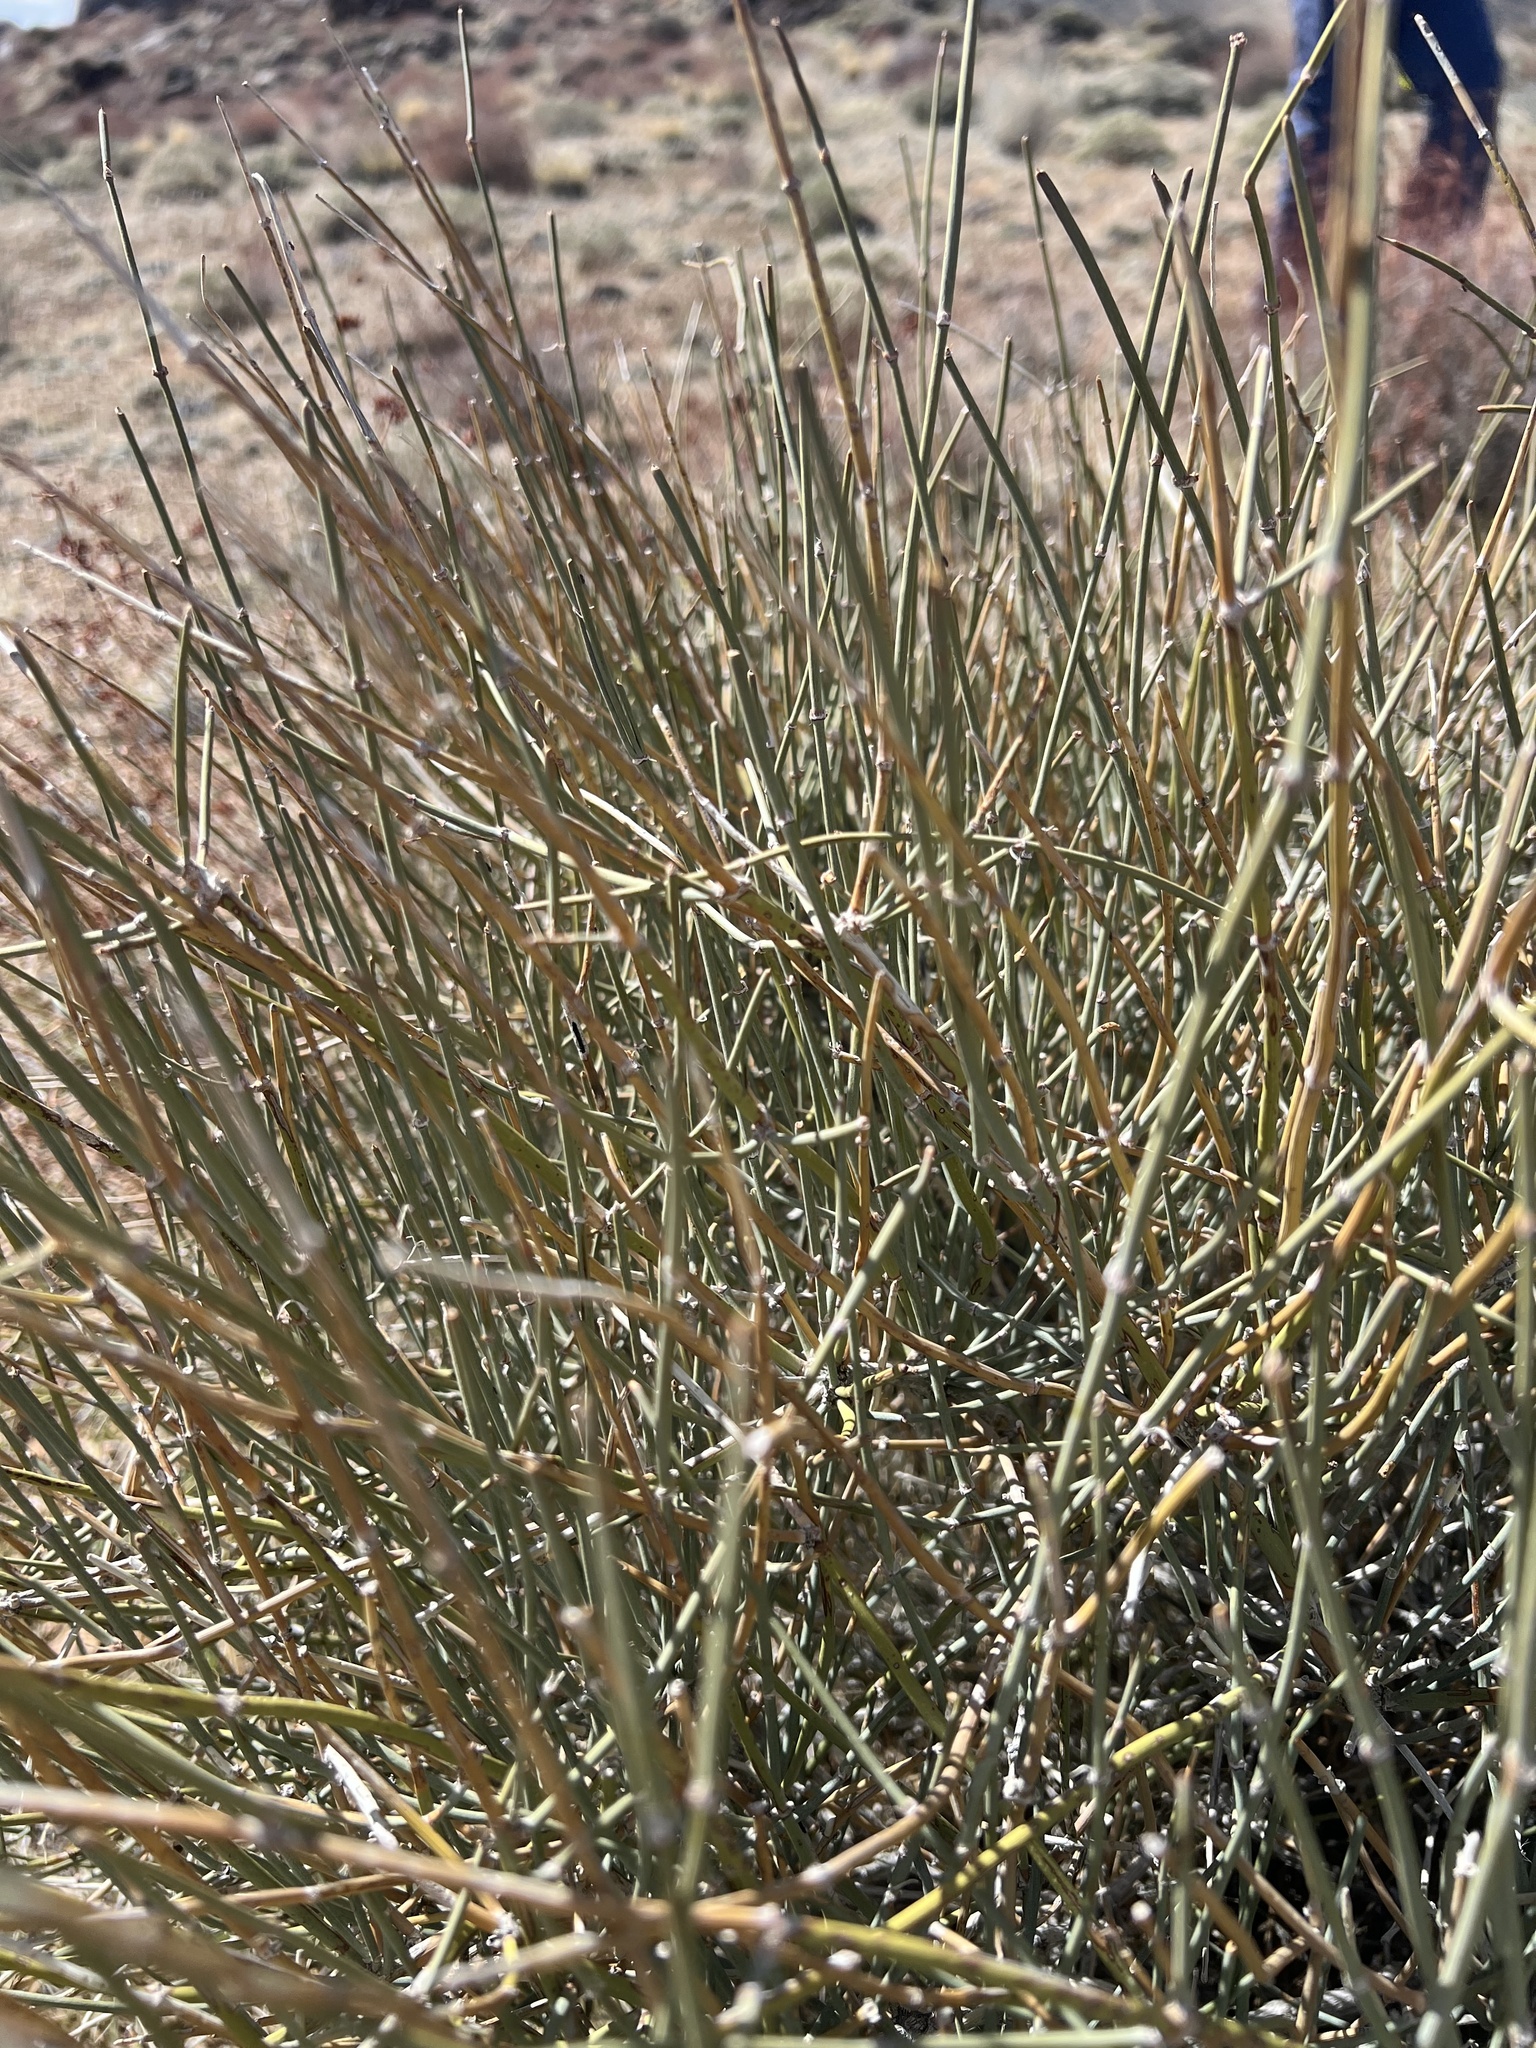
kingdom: Plantae
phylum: Tracheophyta
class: Gnetopsida
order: Ephedrales
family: Ephedraceae
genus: Ephedra
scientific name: Ephedra nevadensis
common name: Gray ephedra
